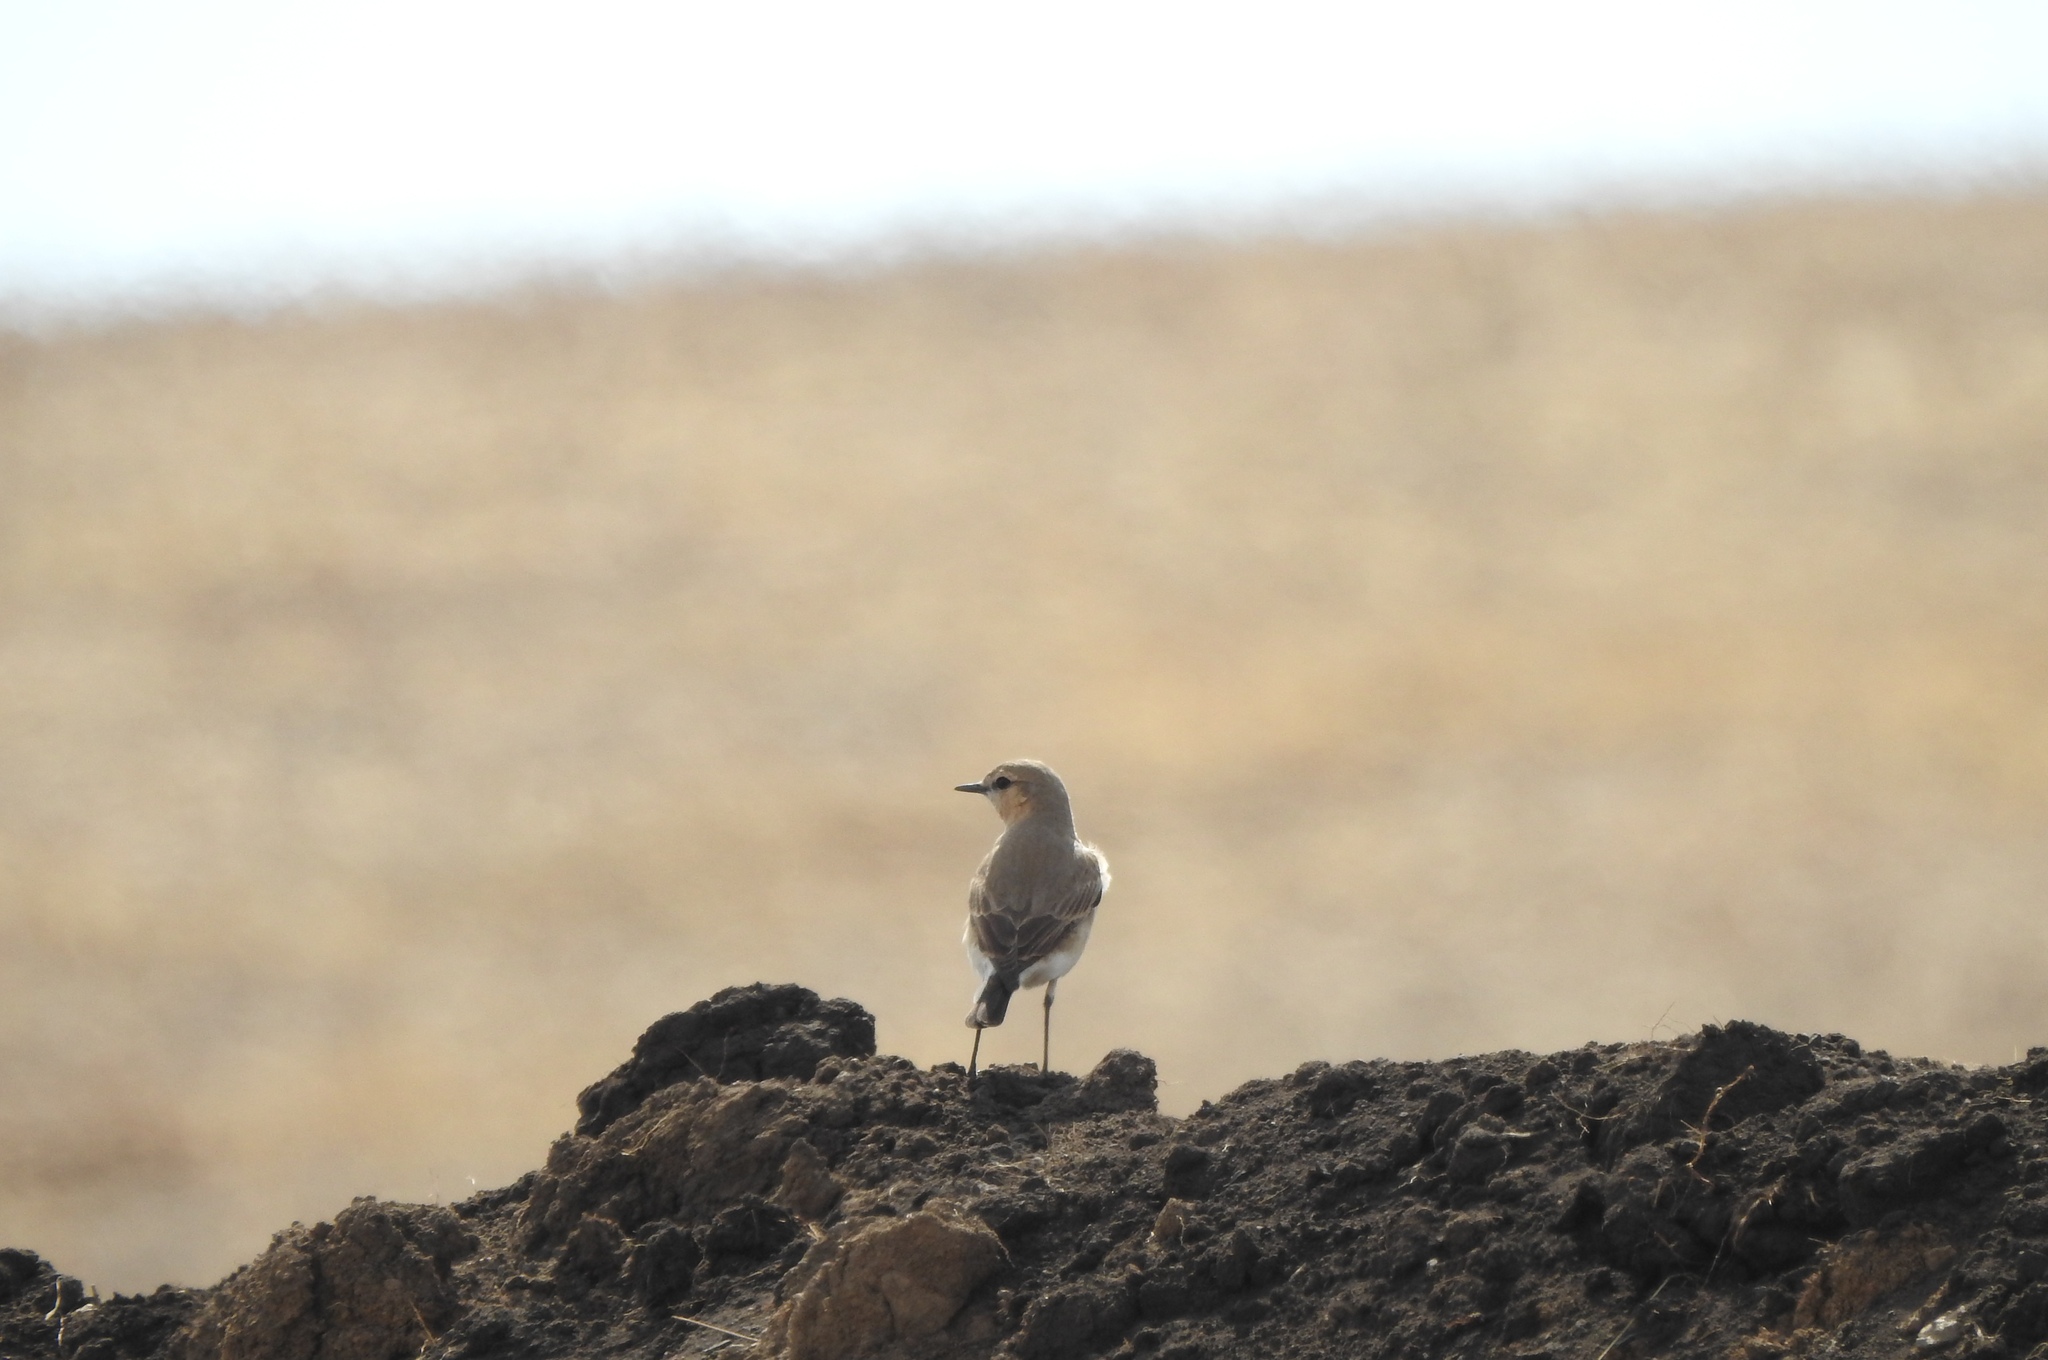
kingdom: Animalia
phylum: Chordata
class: Aves
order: Passeriformes
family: Muscicapidae
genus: Oenanthe
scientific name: Oenanthe isabellina
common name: Isabelline wheatear
